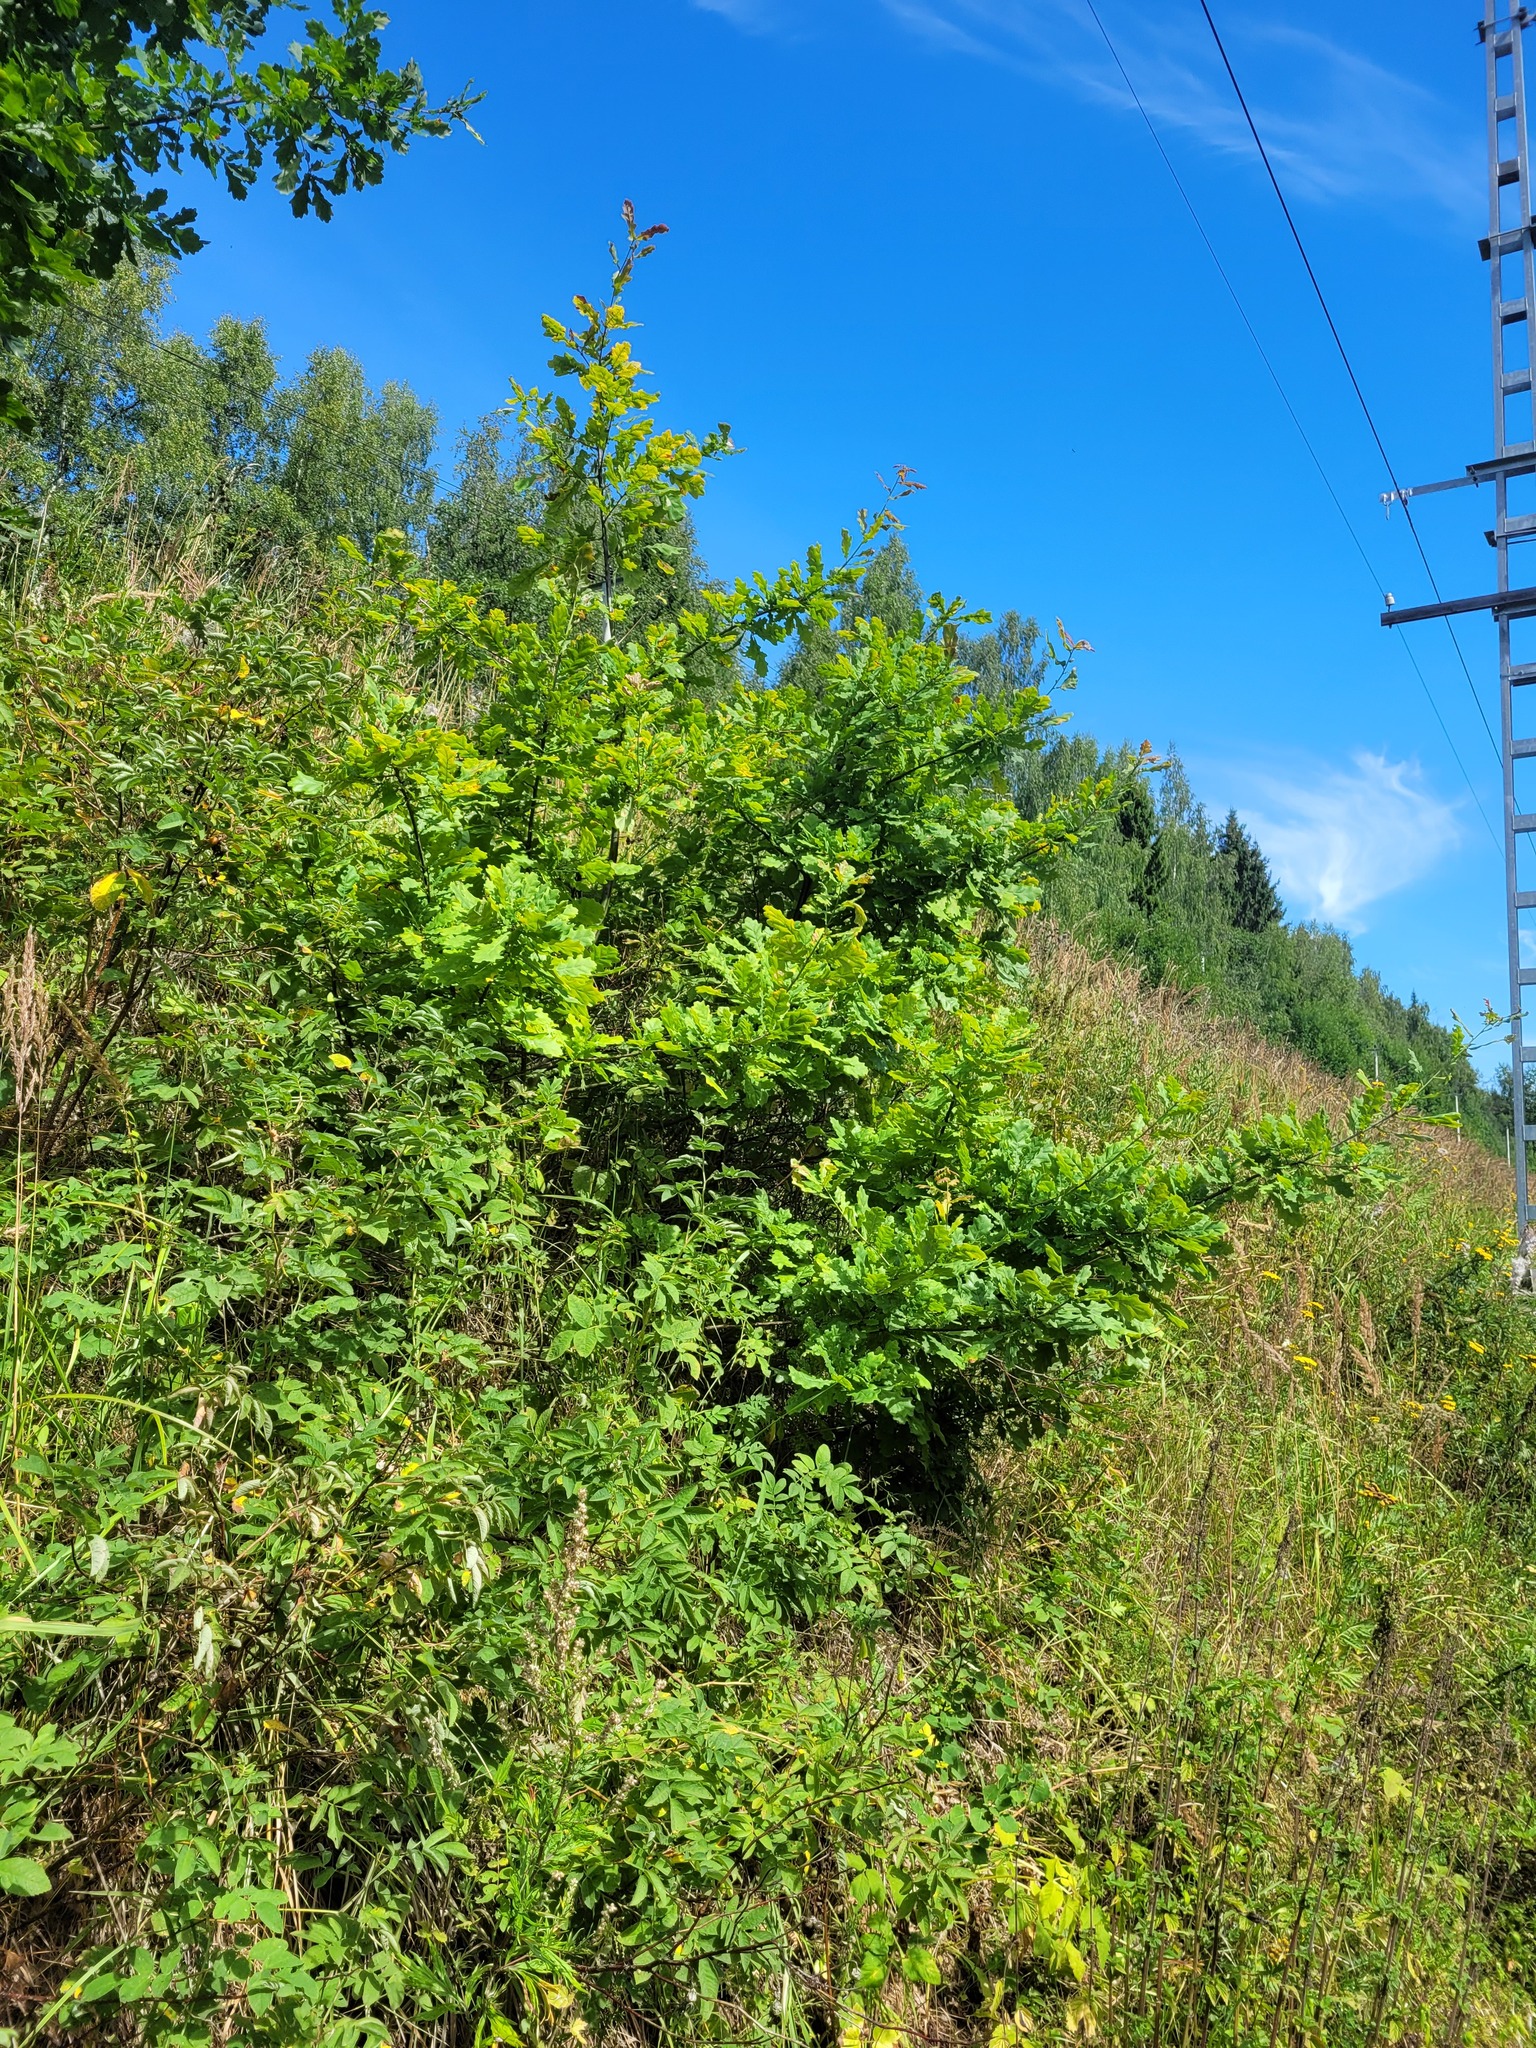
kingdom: Plantae
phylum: Tracheophyta
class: Magnoliopsida
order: Fagales
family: Fagaceae
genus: Quercus
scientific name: Quercus robur
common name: Pedunculate oak
